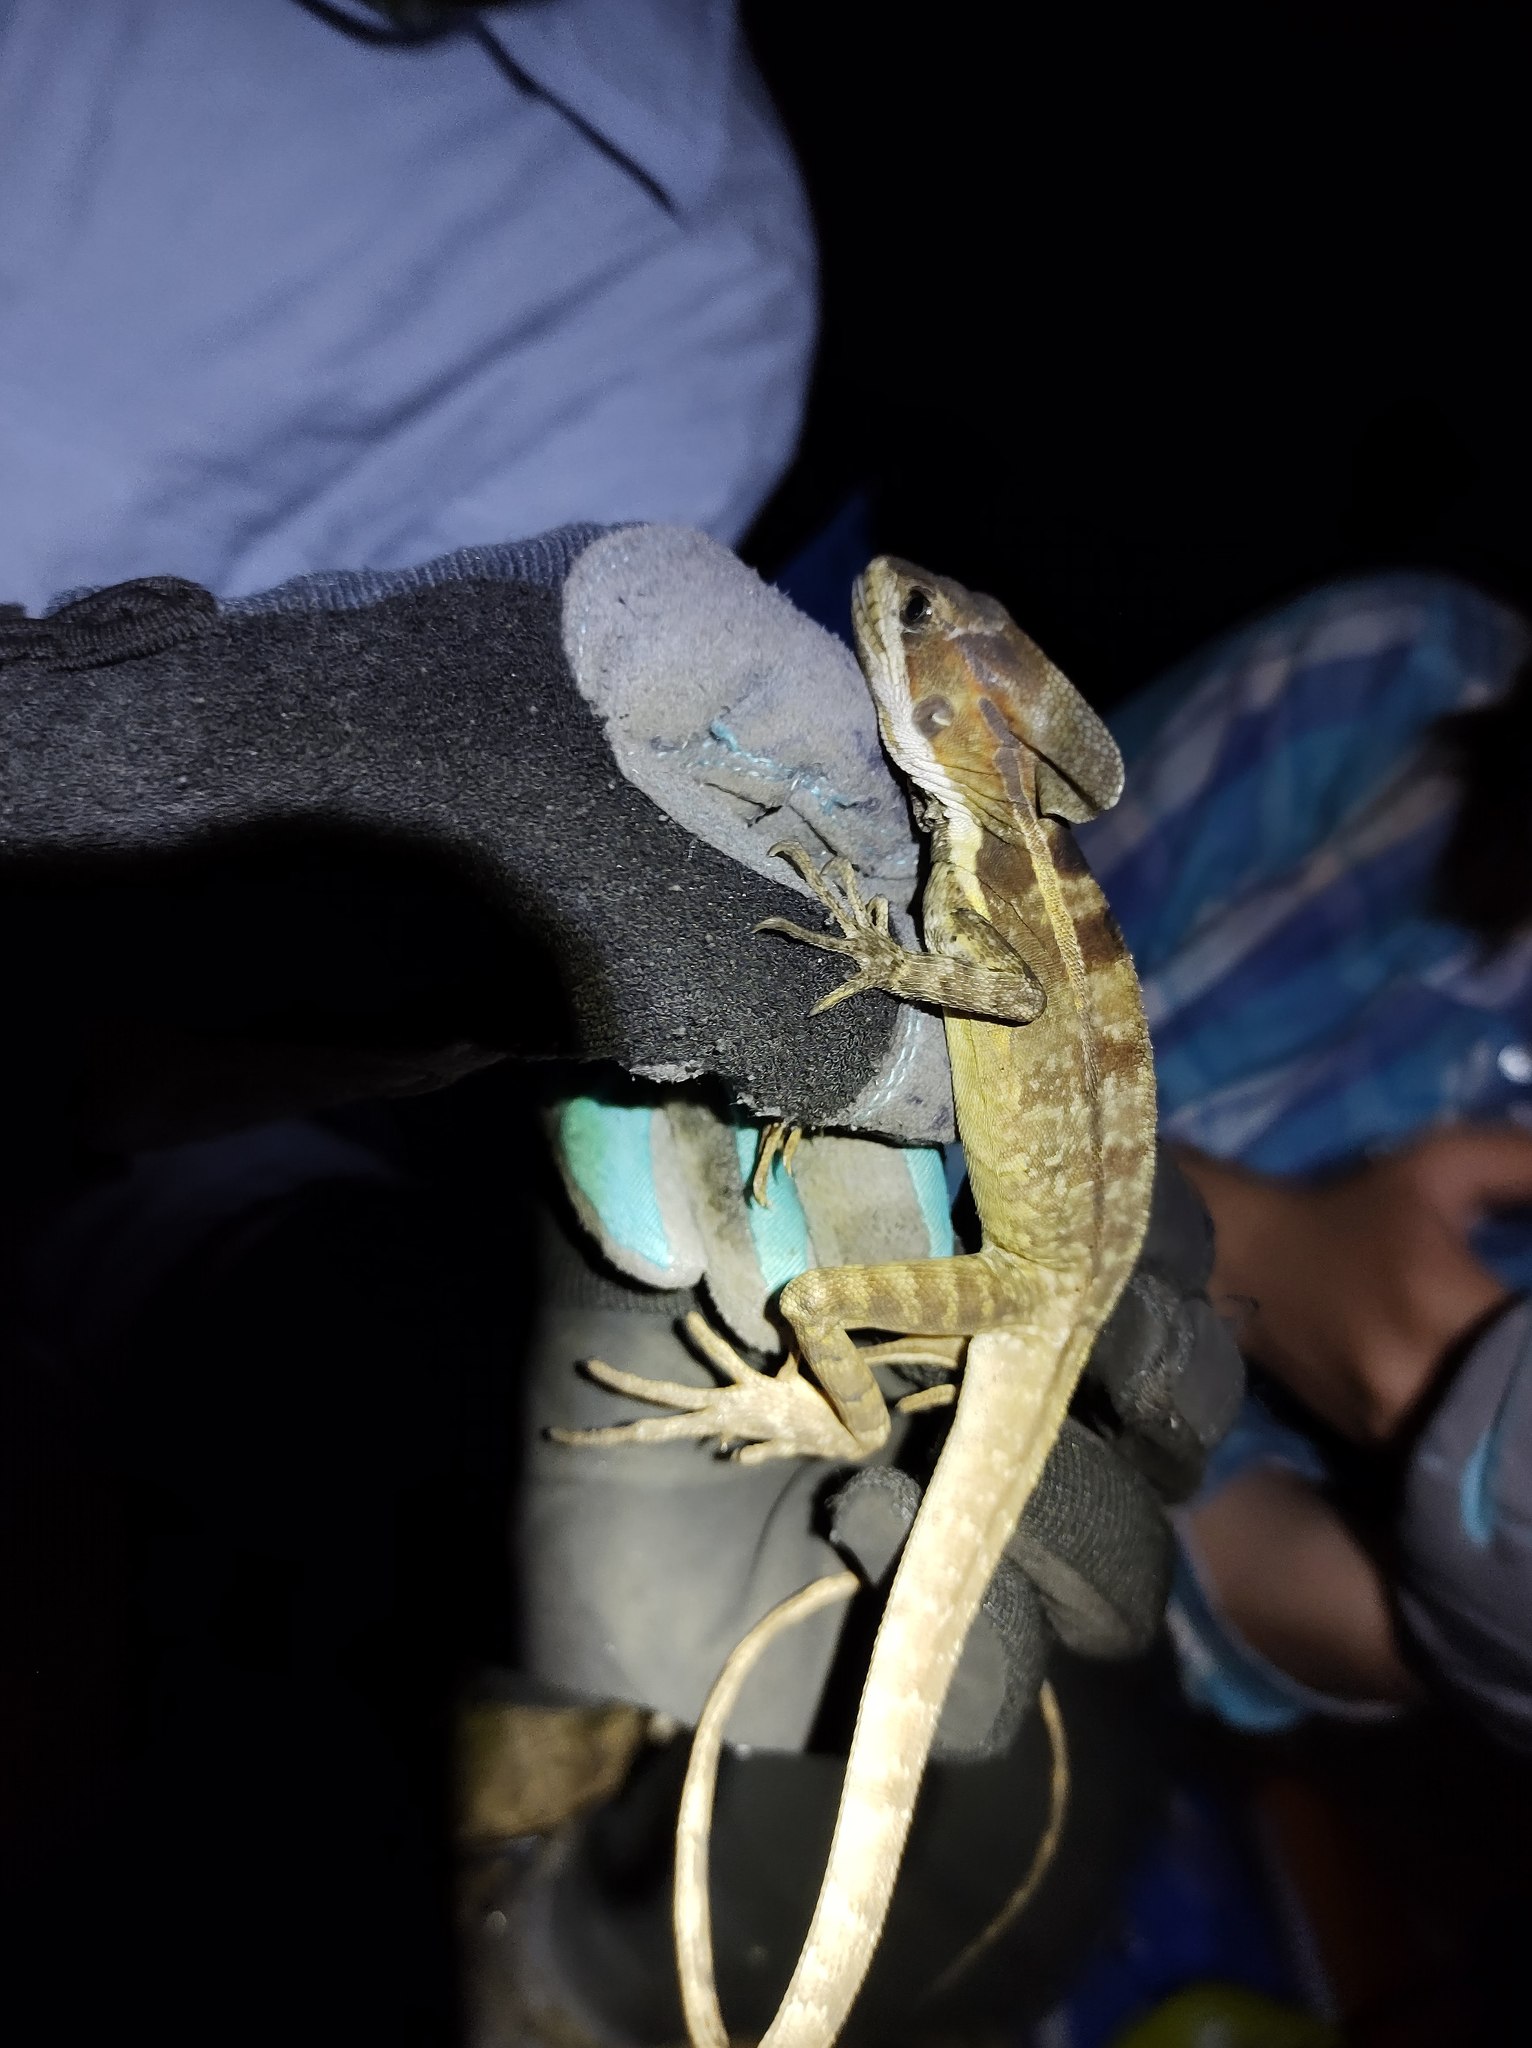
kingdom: Animalia
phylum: Chordata
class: Squamata
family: Corytophanidae
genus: Basiliscus
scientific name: Basiliscus vittatus
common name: Brown basilisk
